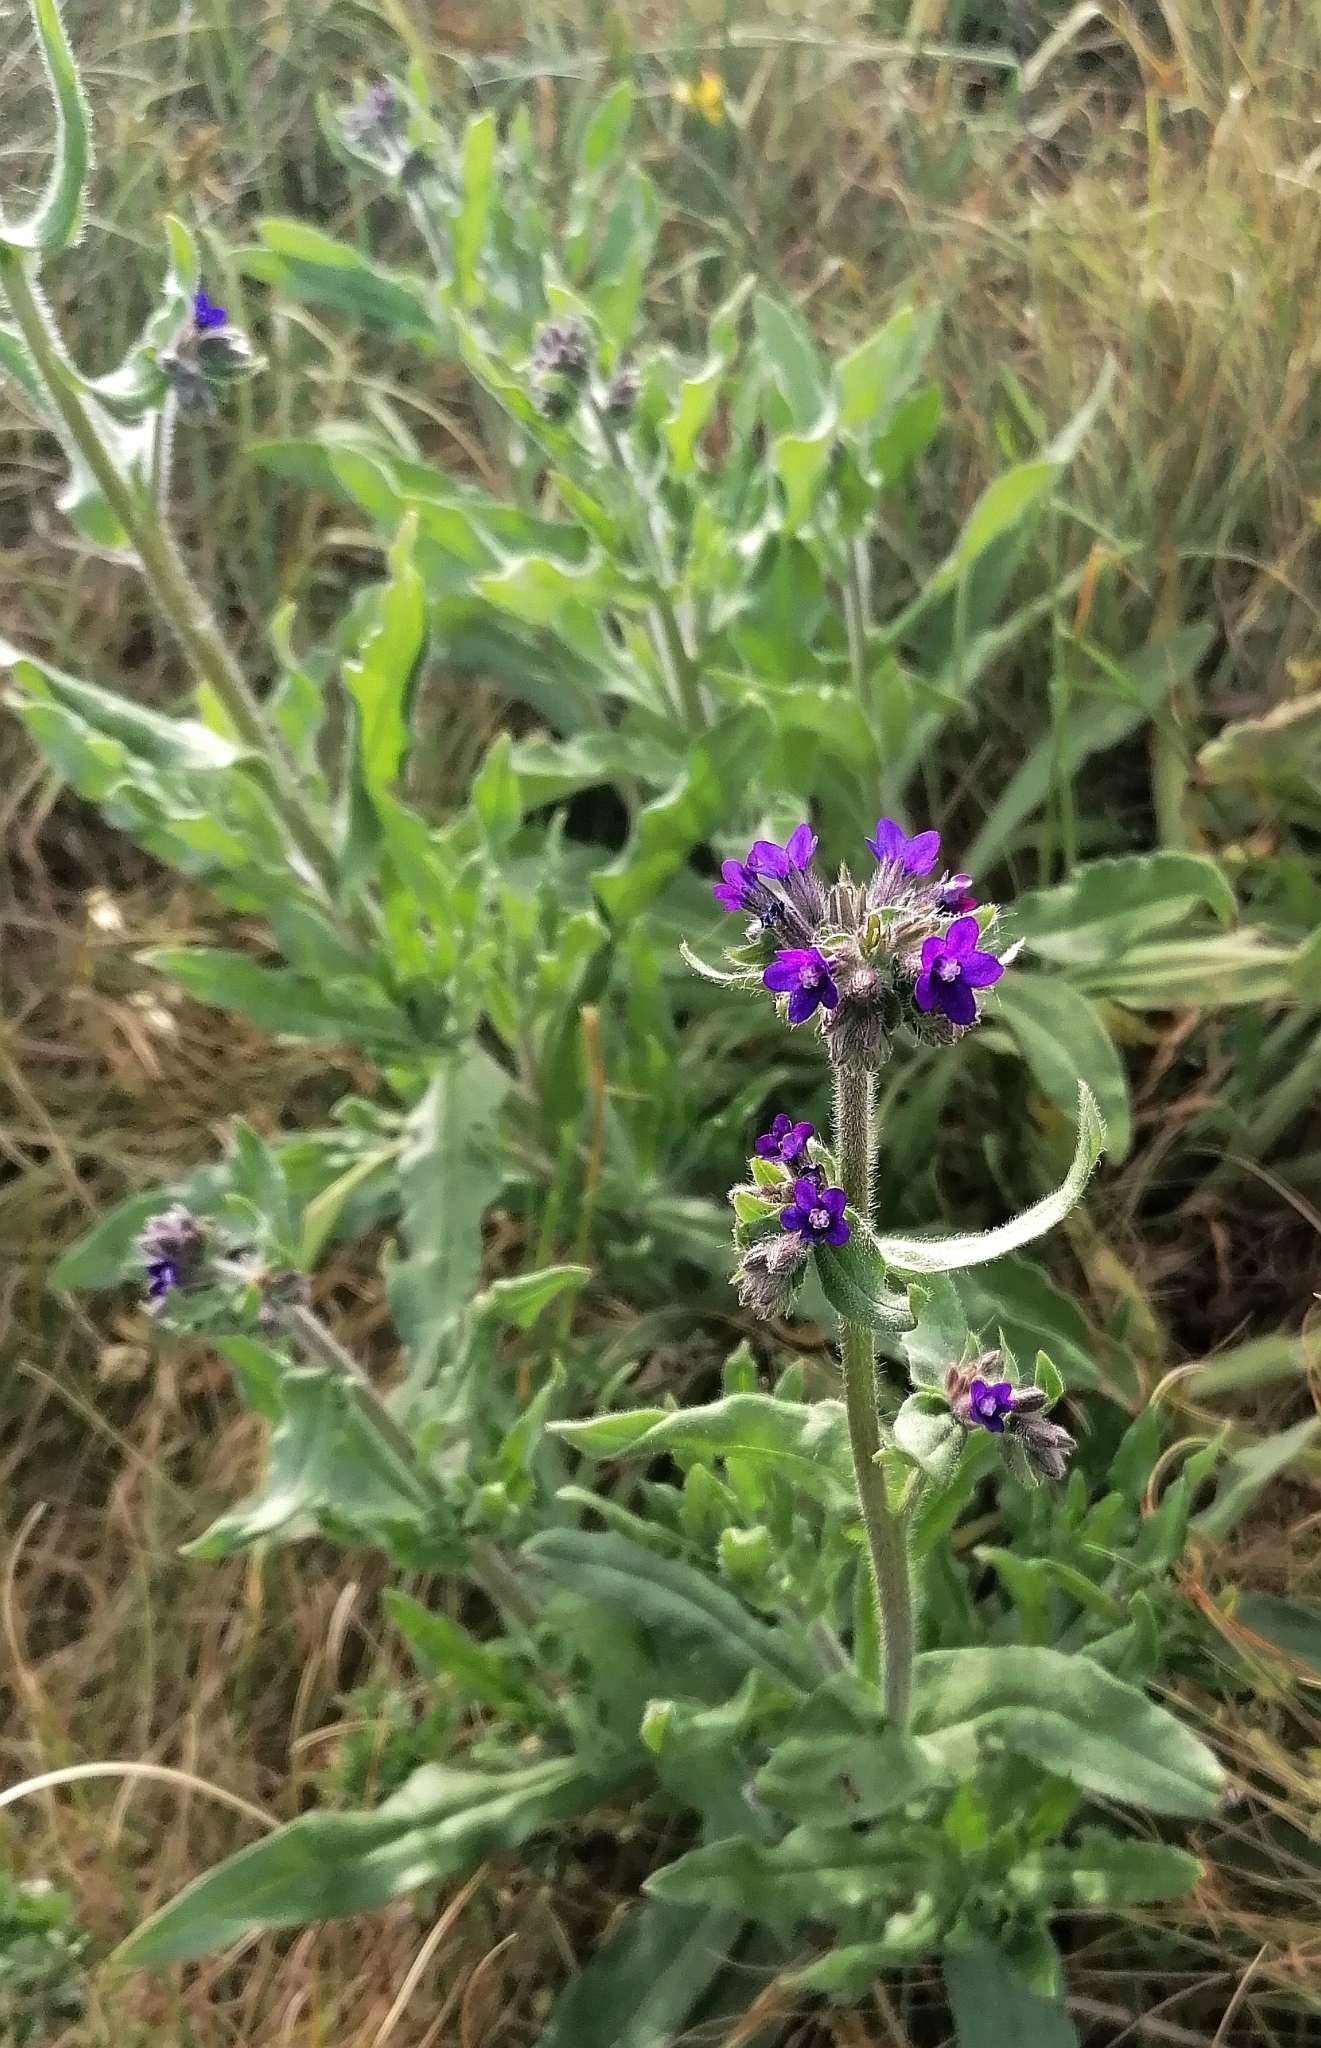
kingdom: Plantae
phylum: Tracheophyta
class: Magnoliopsida
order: Boraginales
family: Boraginaceae
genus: Anchusa
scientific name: Anchusa officinalis
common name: Alkanet
